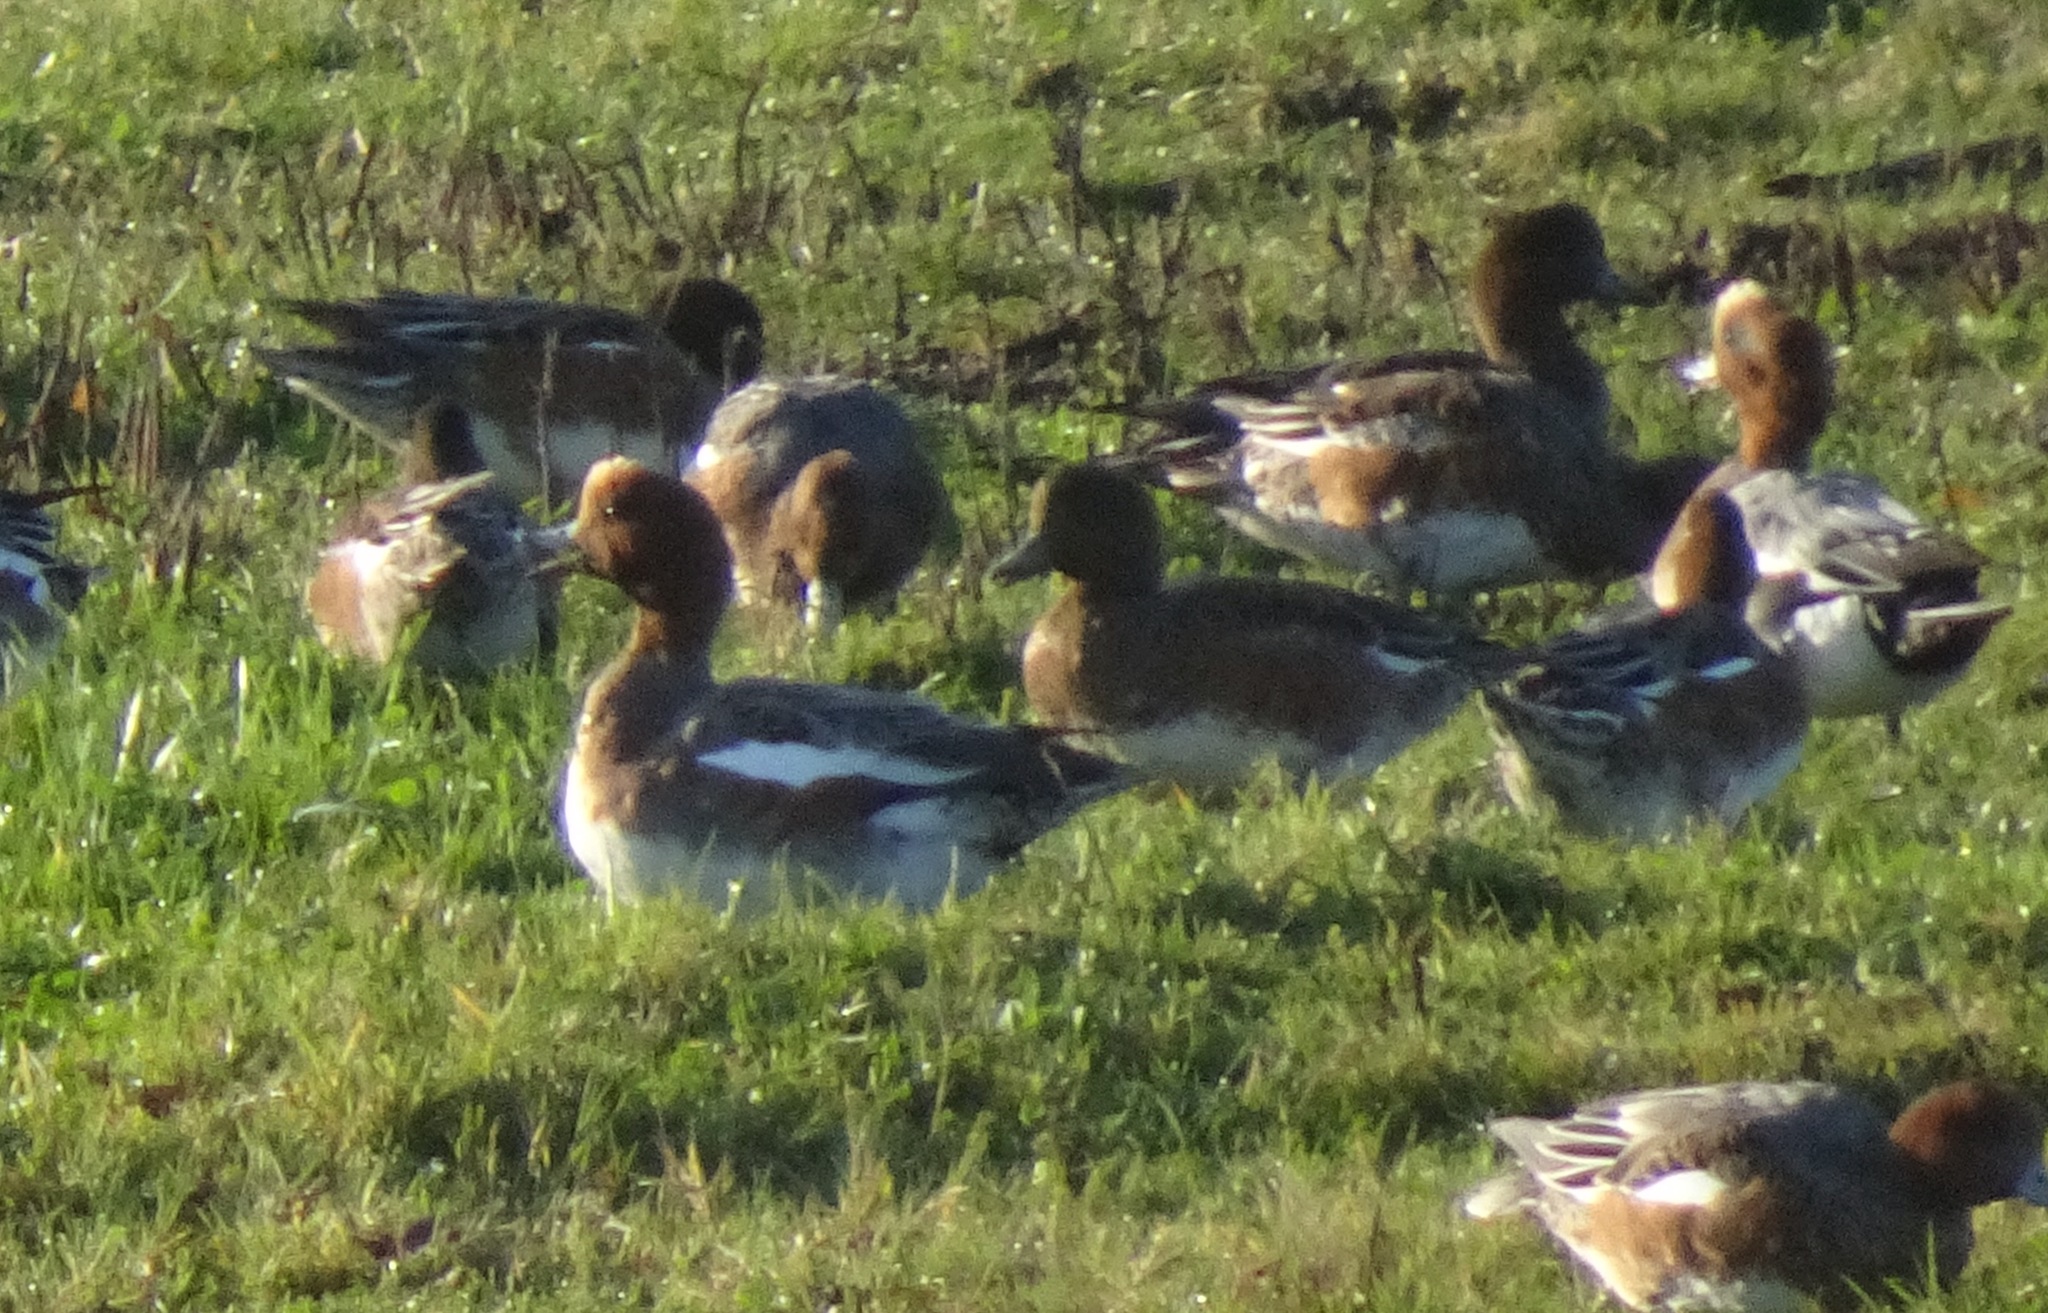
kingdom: Animalia
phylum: Chordata
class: Aves
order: Anseriformes
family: Anatidae
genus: Mareca
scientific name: Mareca penelope
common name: Eurasian wigeon
